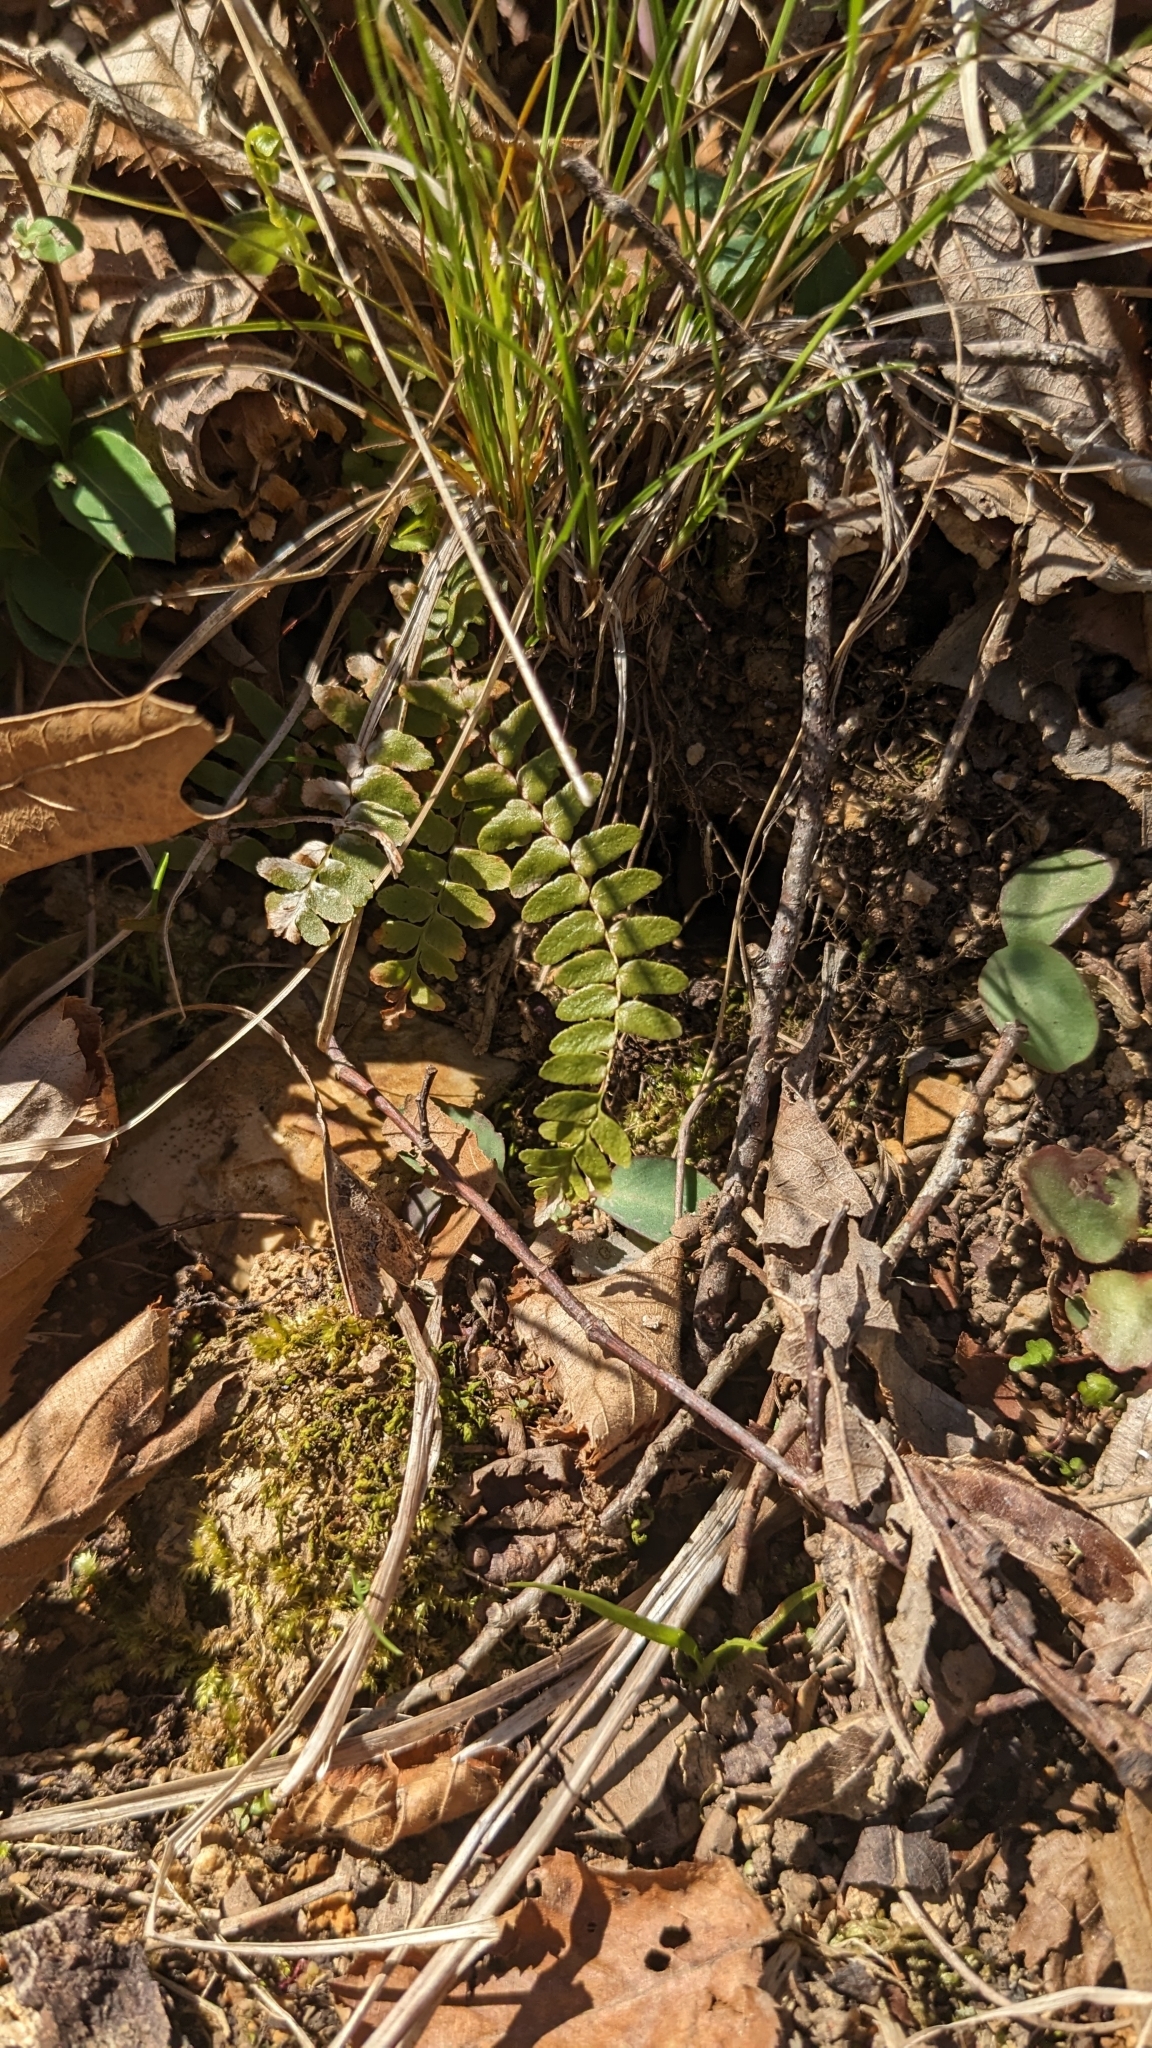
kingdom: Plantae
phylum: Tracheophyta
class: Polypodiopsida
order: Polypodiales
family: Aspleniaceae
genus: Asplenium
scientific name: Asplenium platyneuron
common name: Ebony spleenwort
